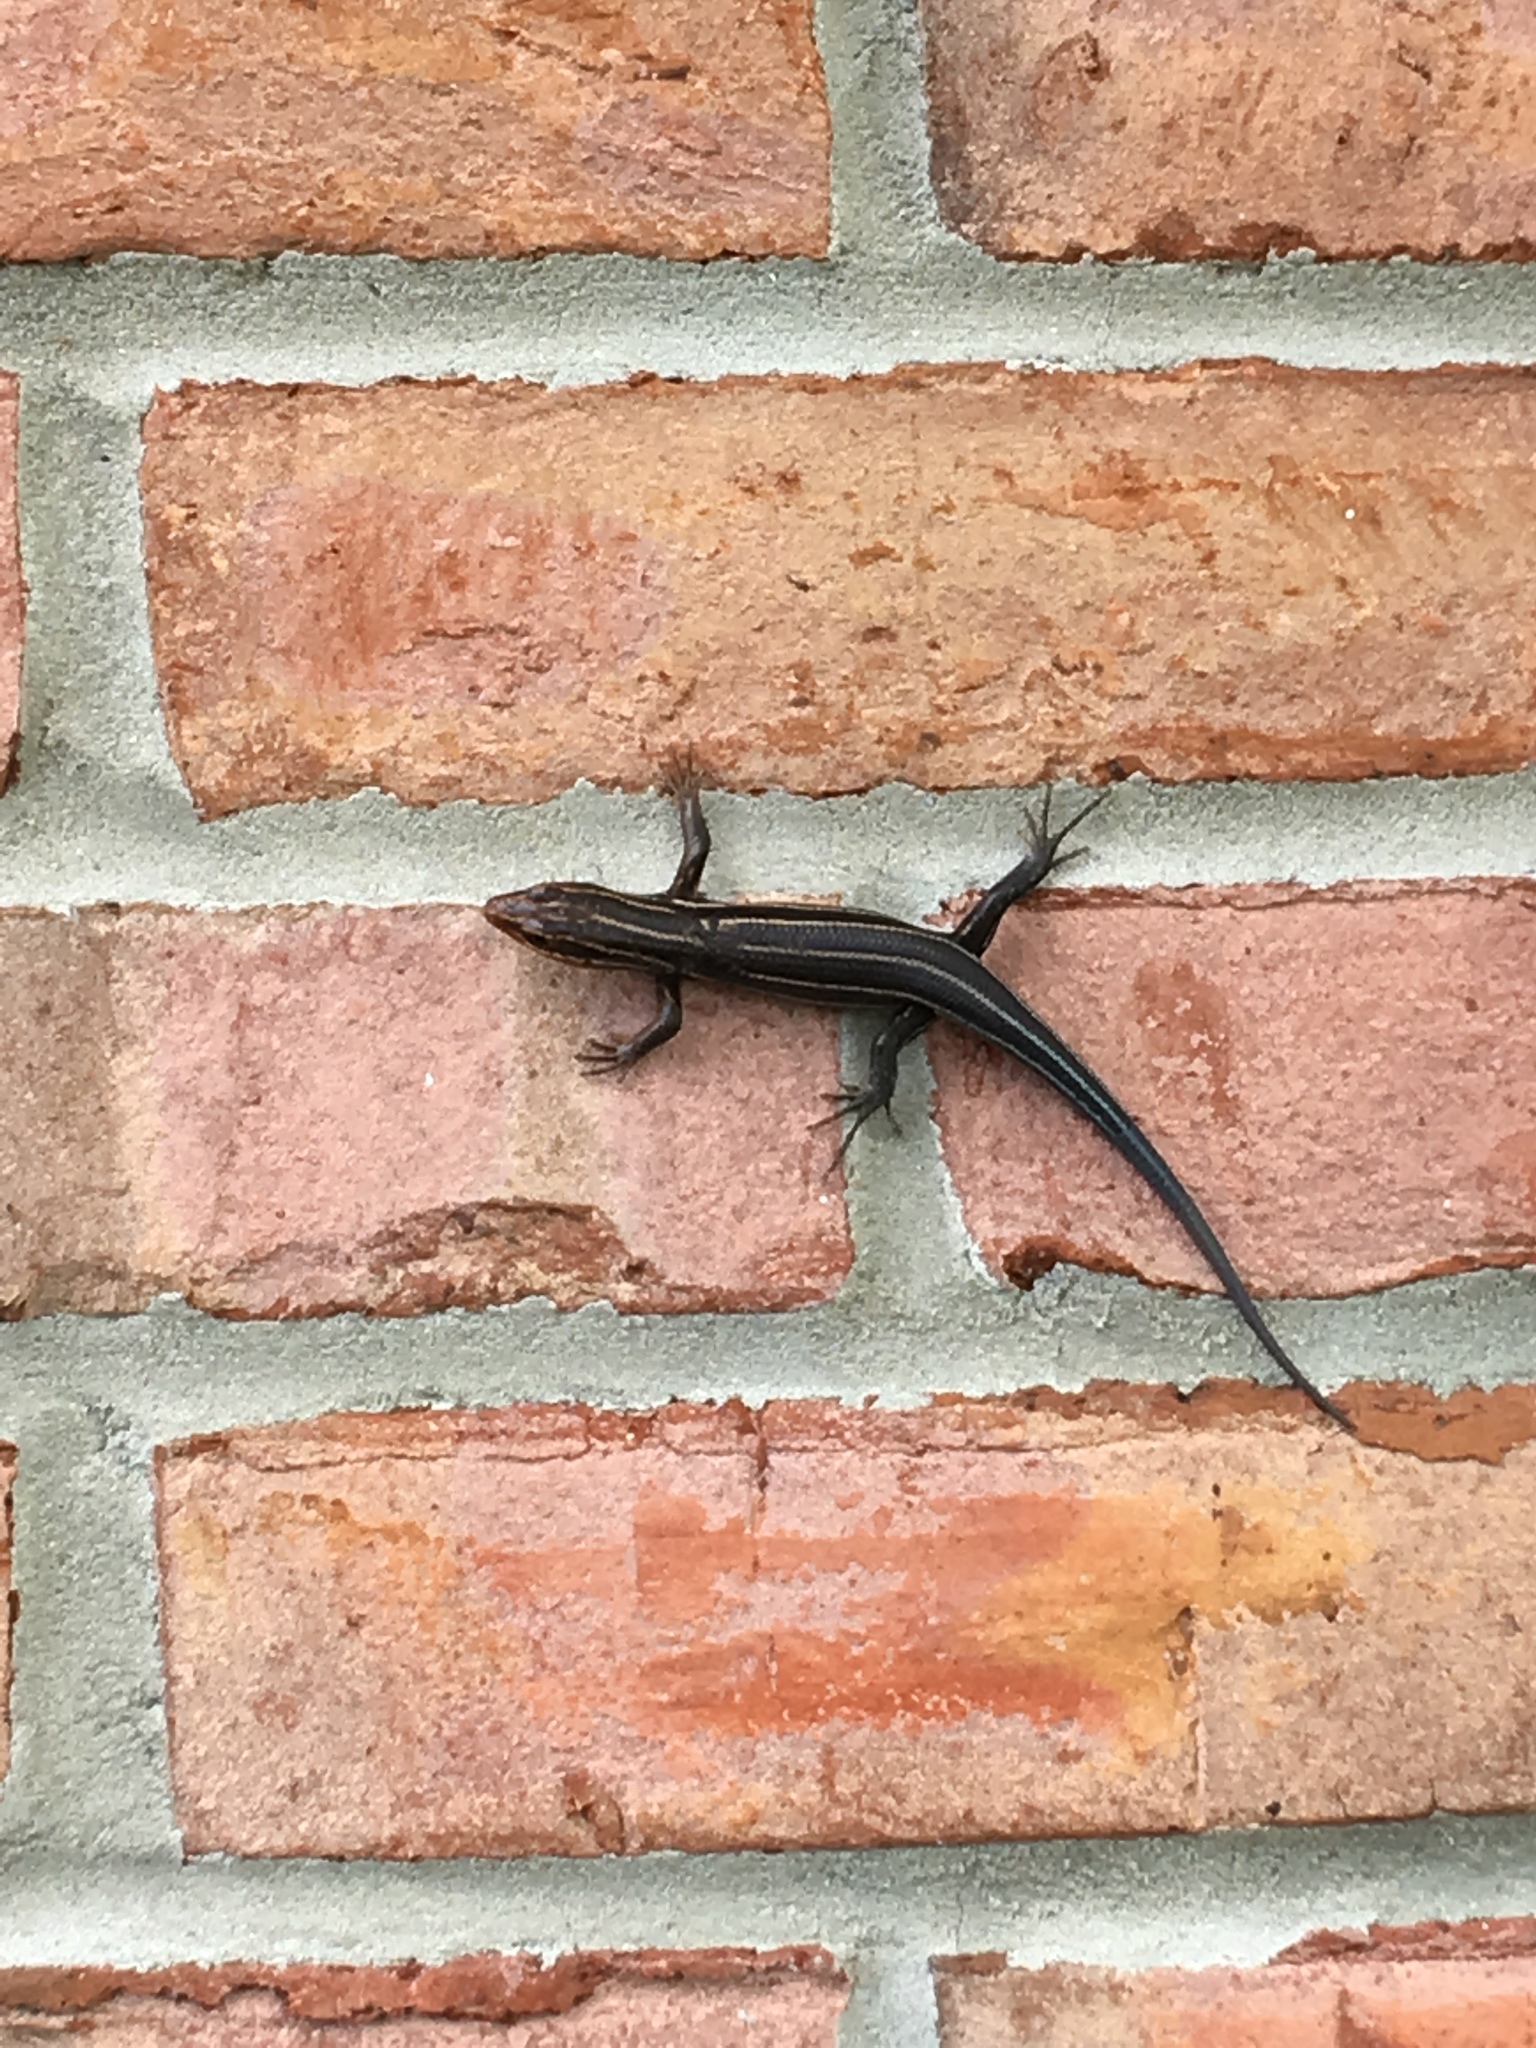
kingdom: Animalia
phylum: Chordata
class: Squamata
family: Scincidae
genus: Plestiodon
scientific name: Plestiodon laticeps
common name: Broadhead skink
